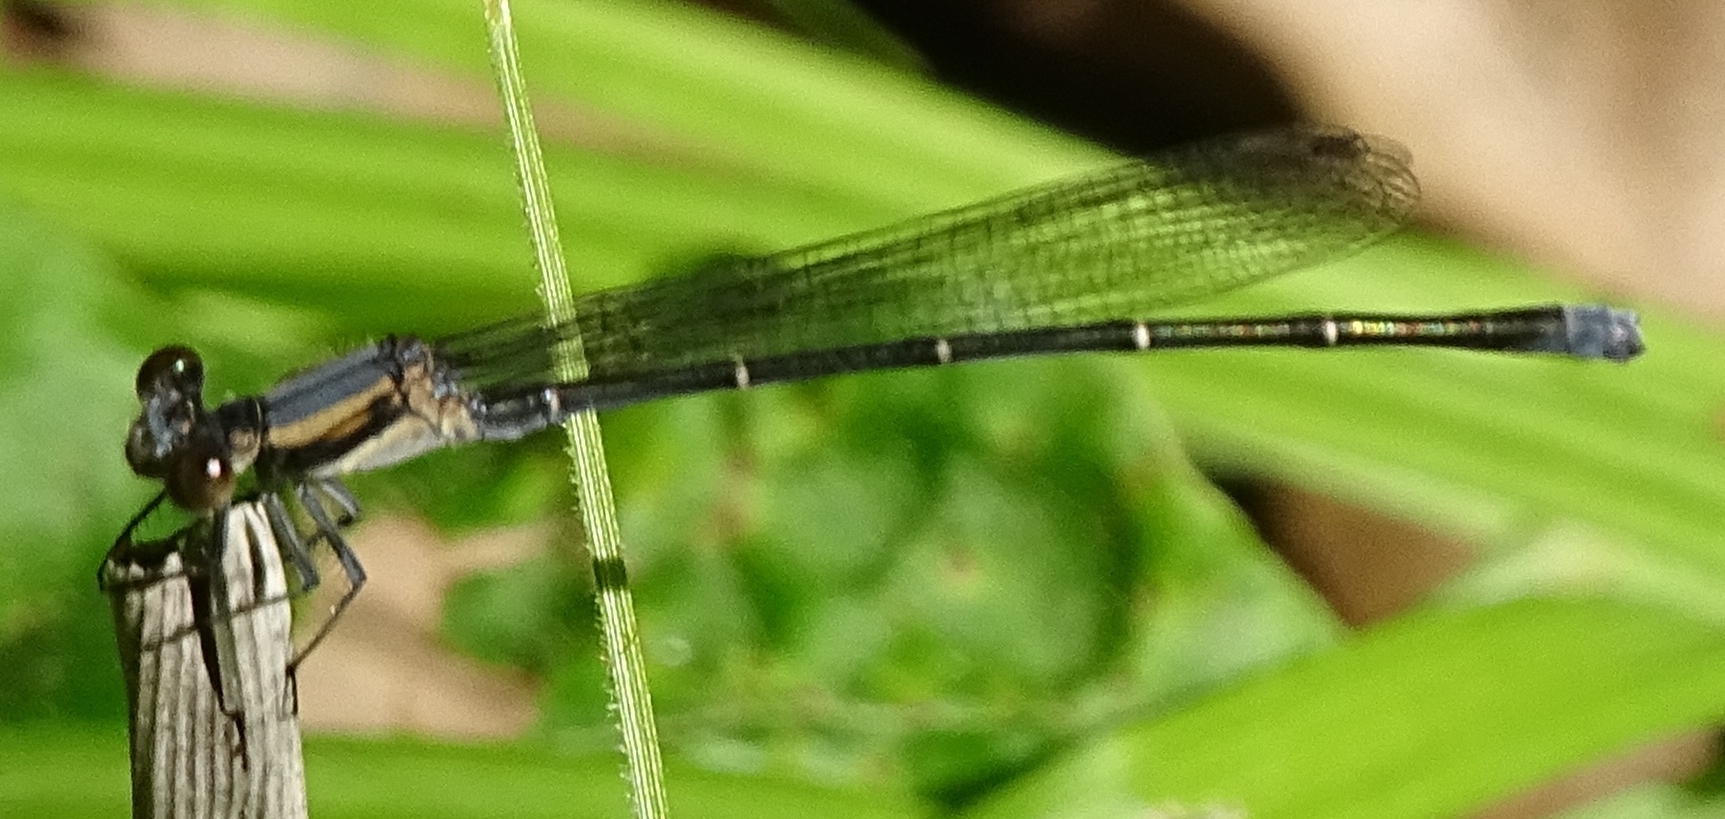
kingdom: Animalia
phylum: Arthropoda
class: Insecta
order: Odonata
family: Coenagrionidae
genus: Argia
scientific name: Argia moesta
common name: Powdered dancer
